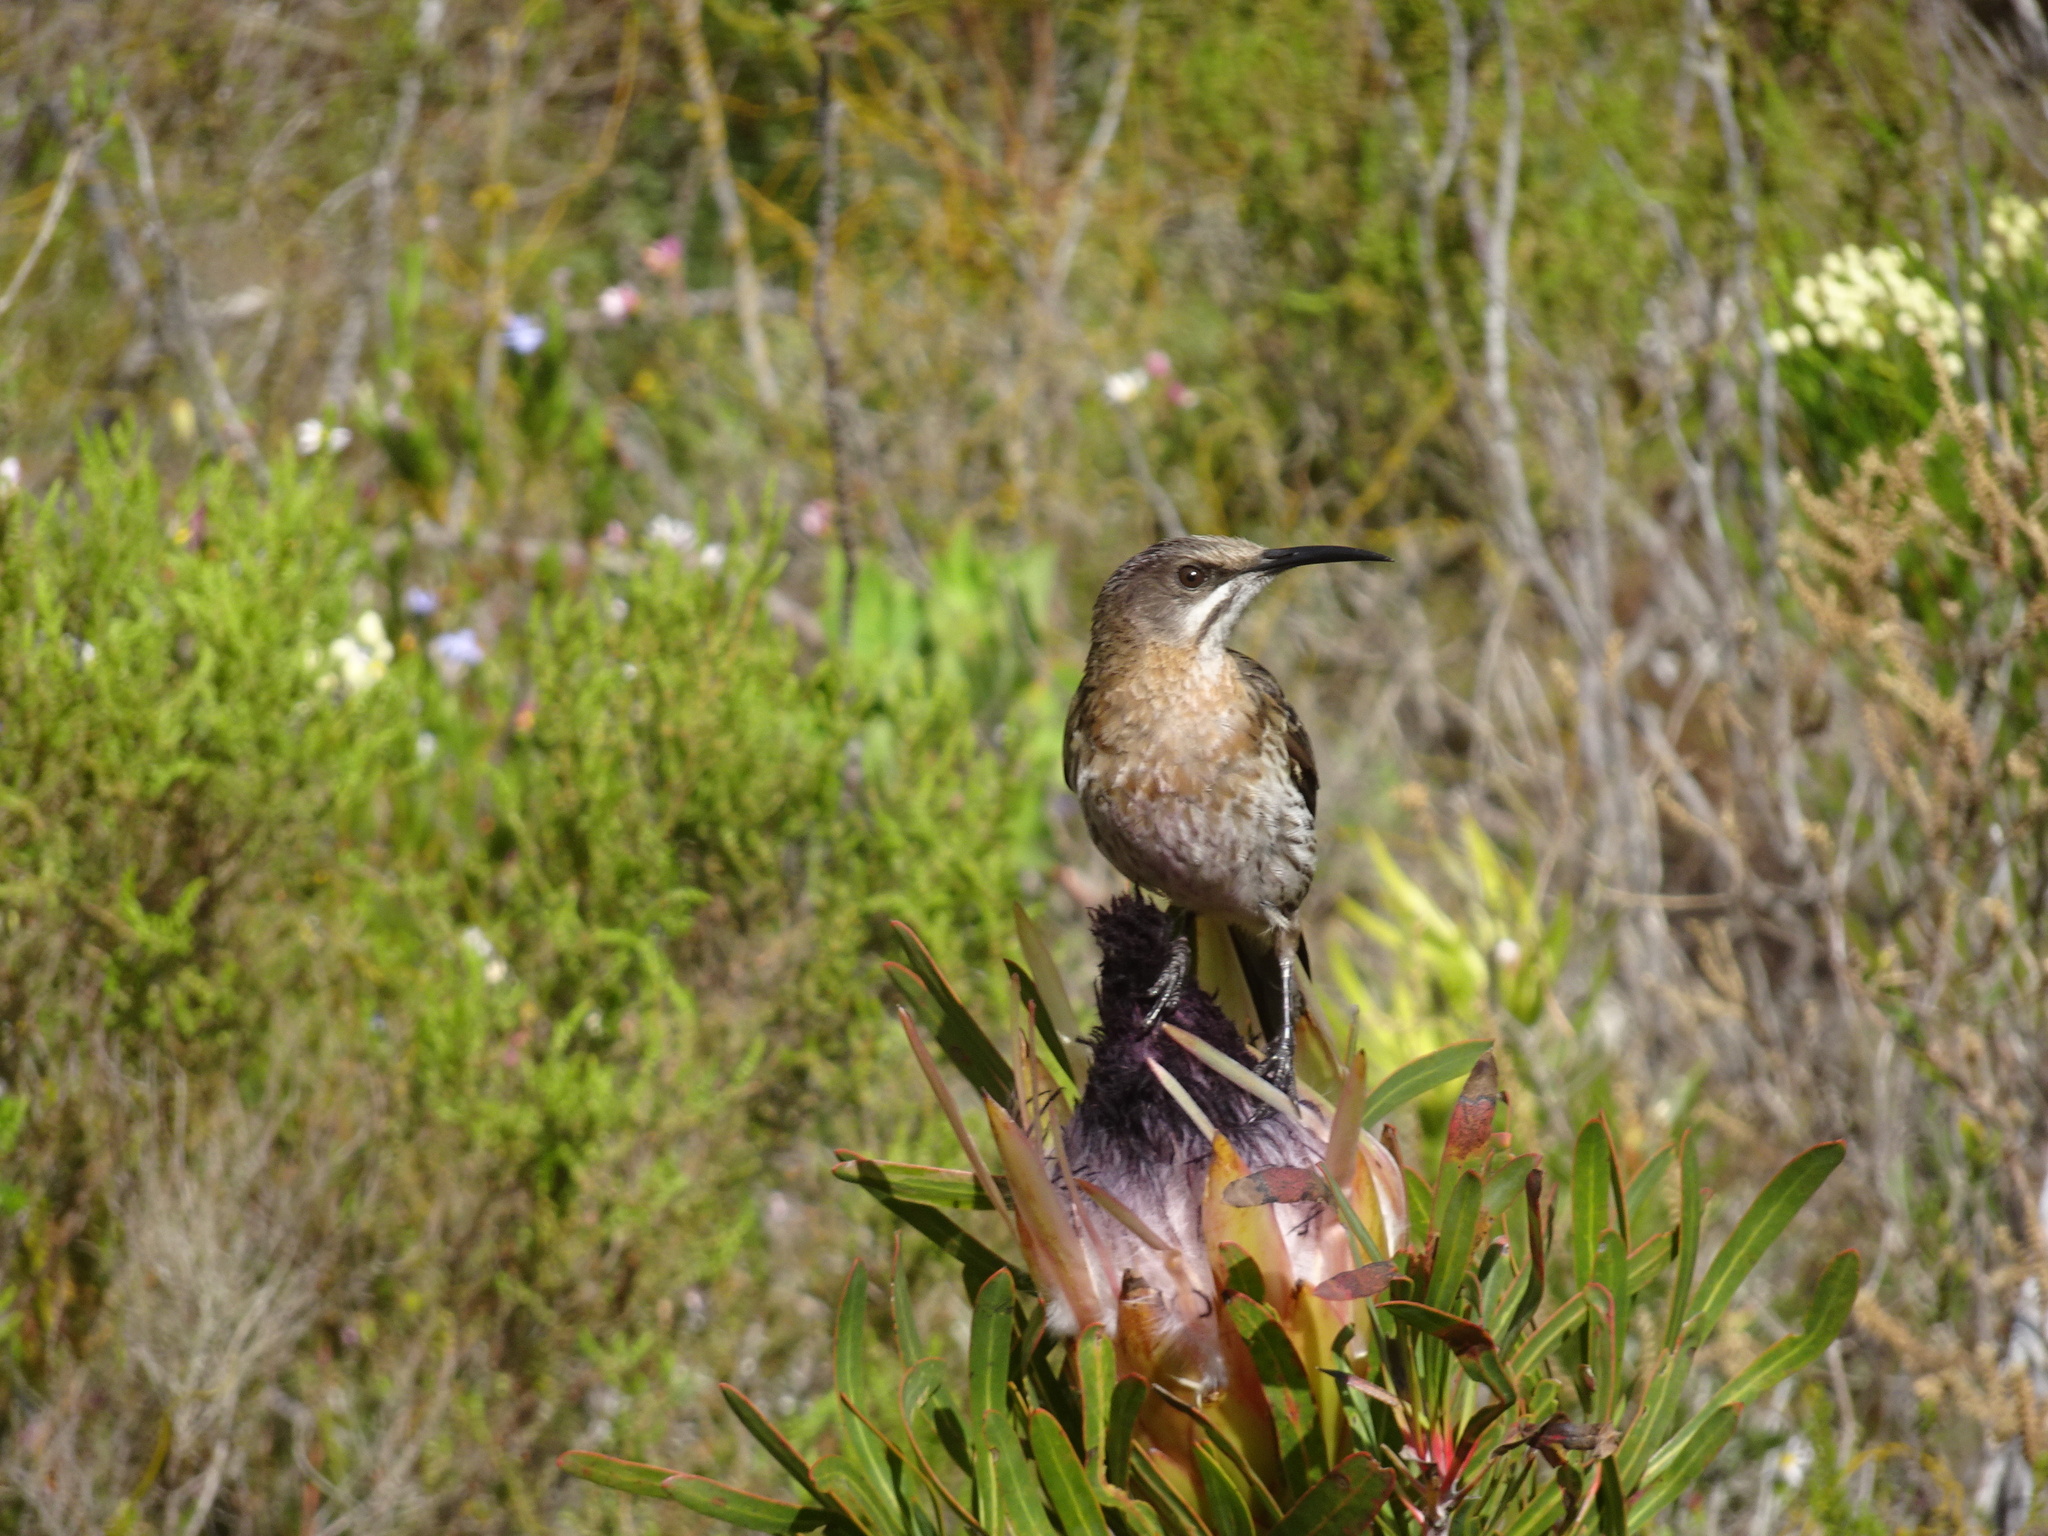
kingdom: Animalia
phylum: Chordata
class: Aves
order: Passeriformes
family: Promeropidae
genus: Promerops
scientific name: Promerops cafer
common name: Cape sugarbird
